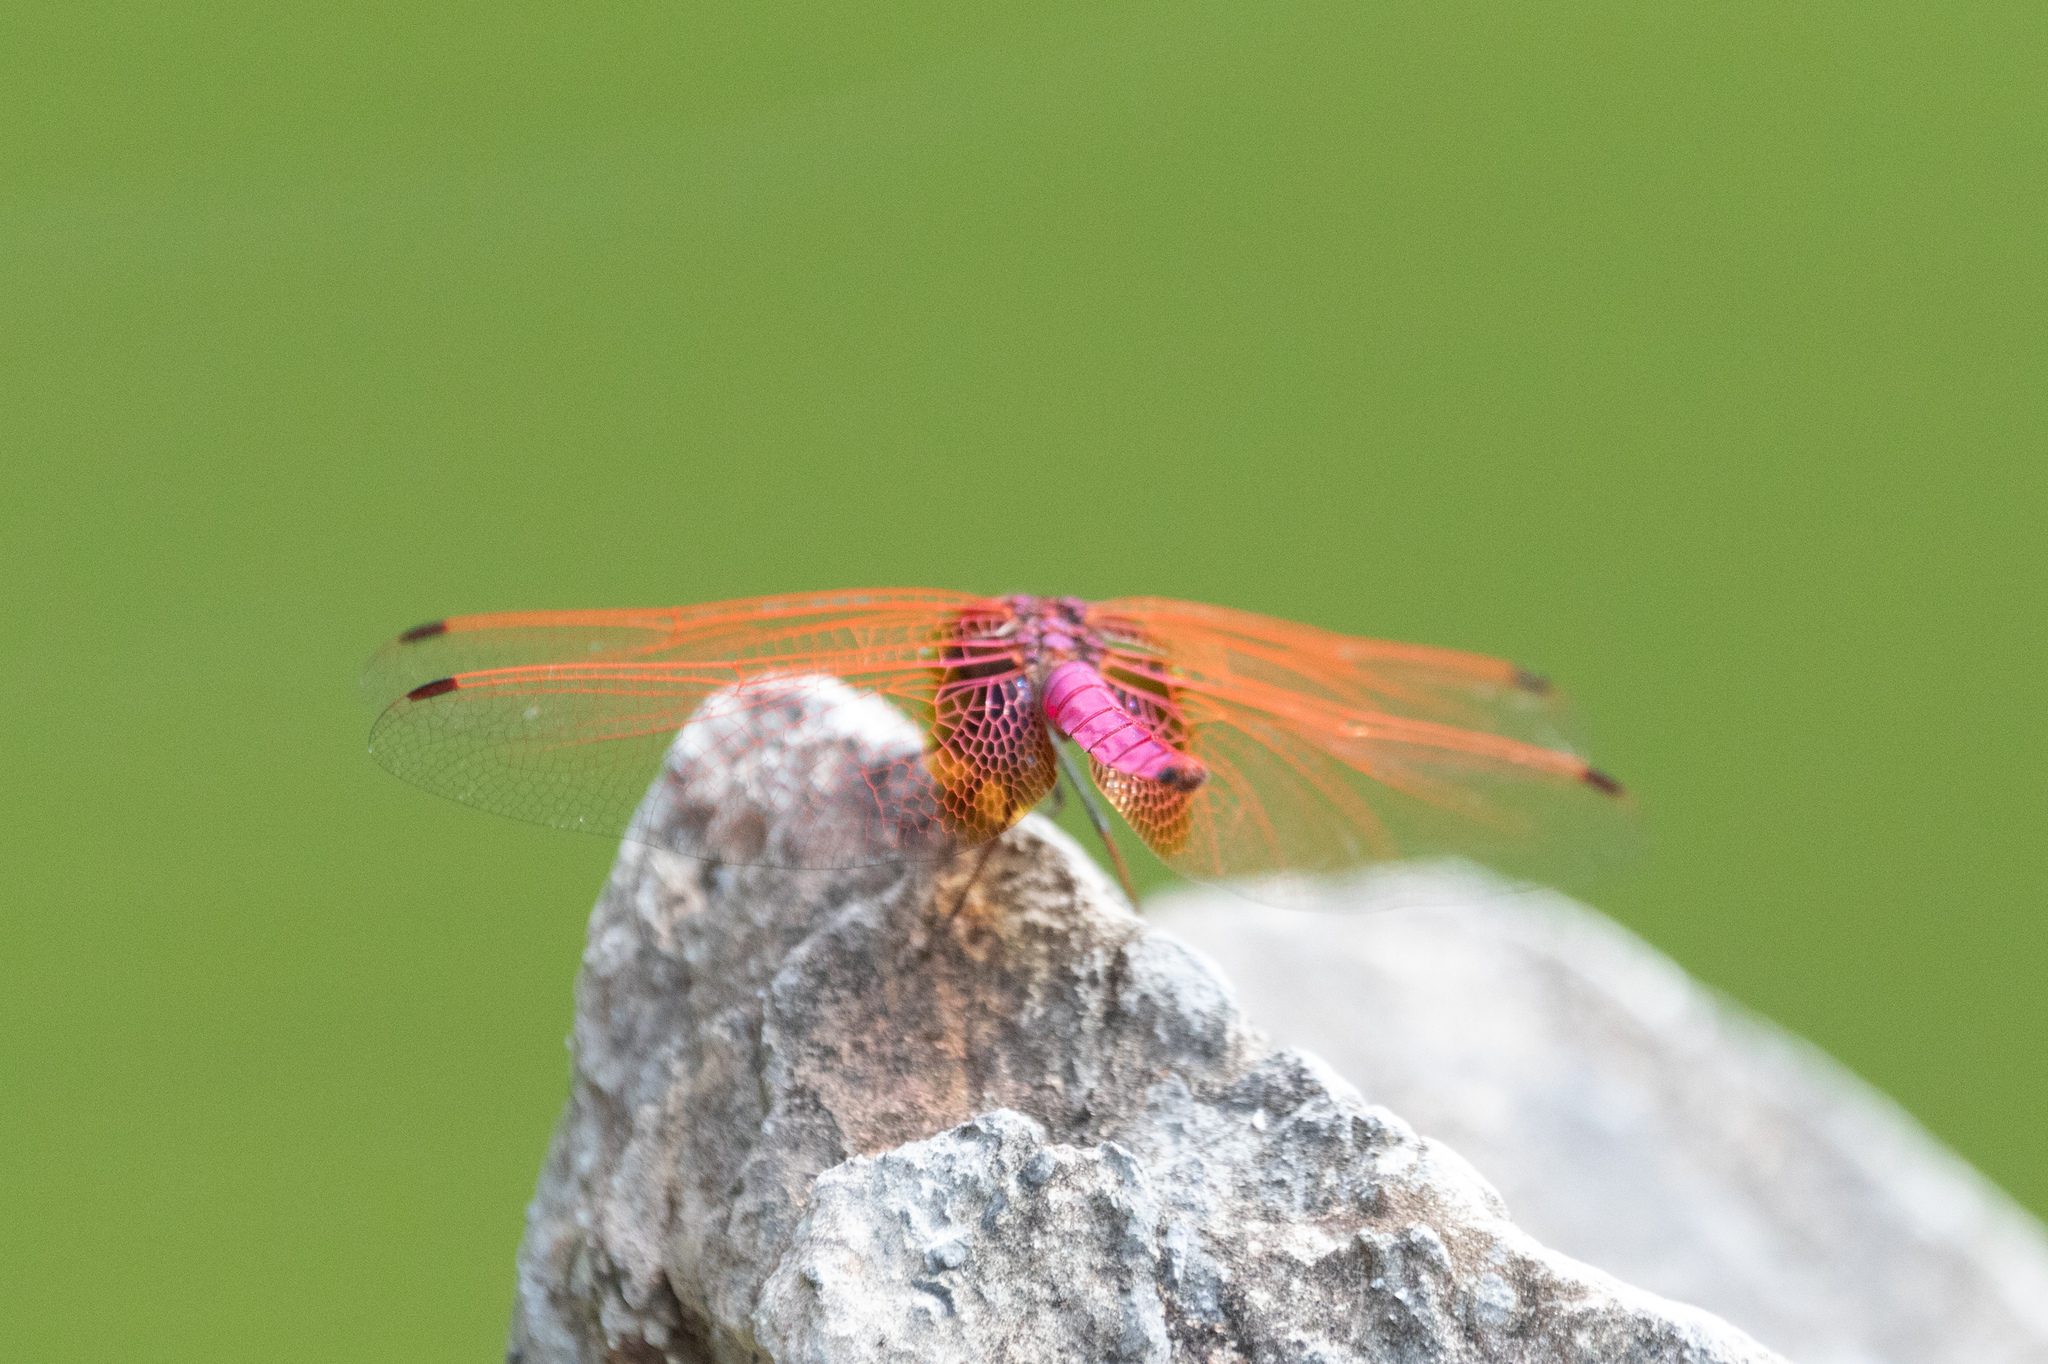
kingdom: Animalia
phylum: Arthropoda
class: Insecta
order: Odonata
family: Libellulidae
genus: Trithemis
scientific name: Trithemis aurora
